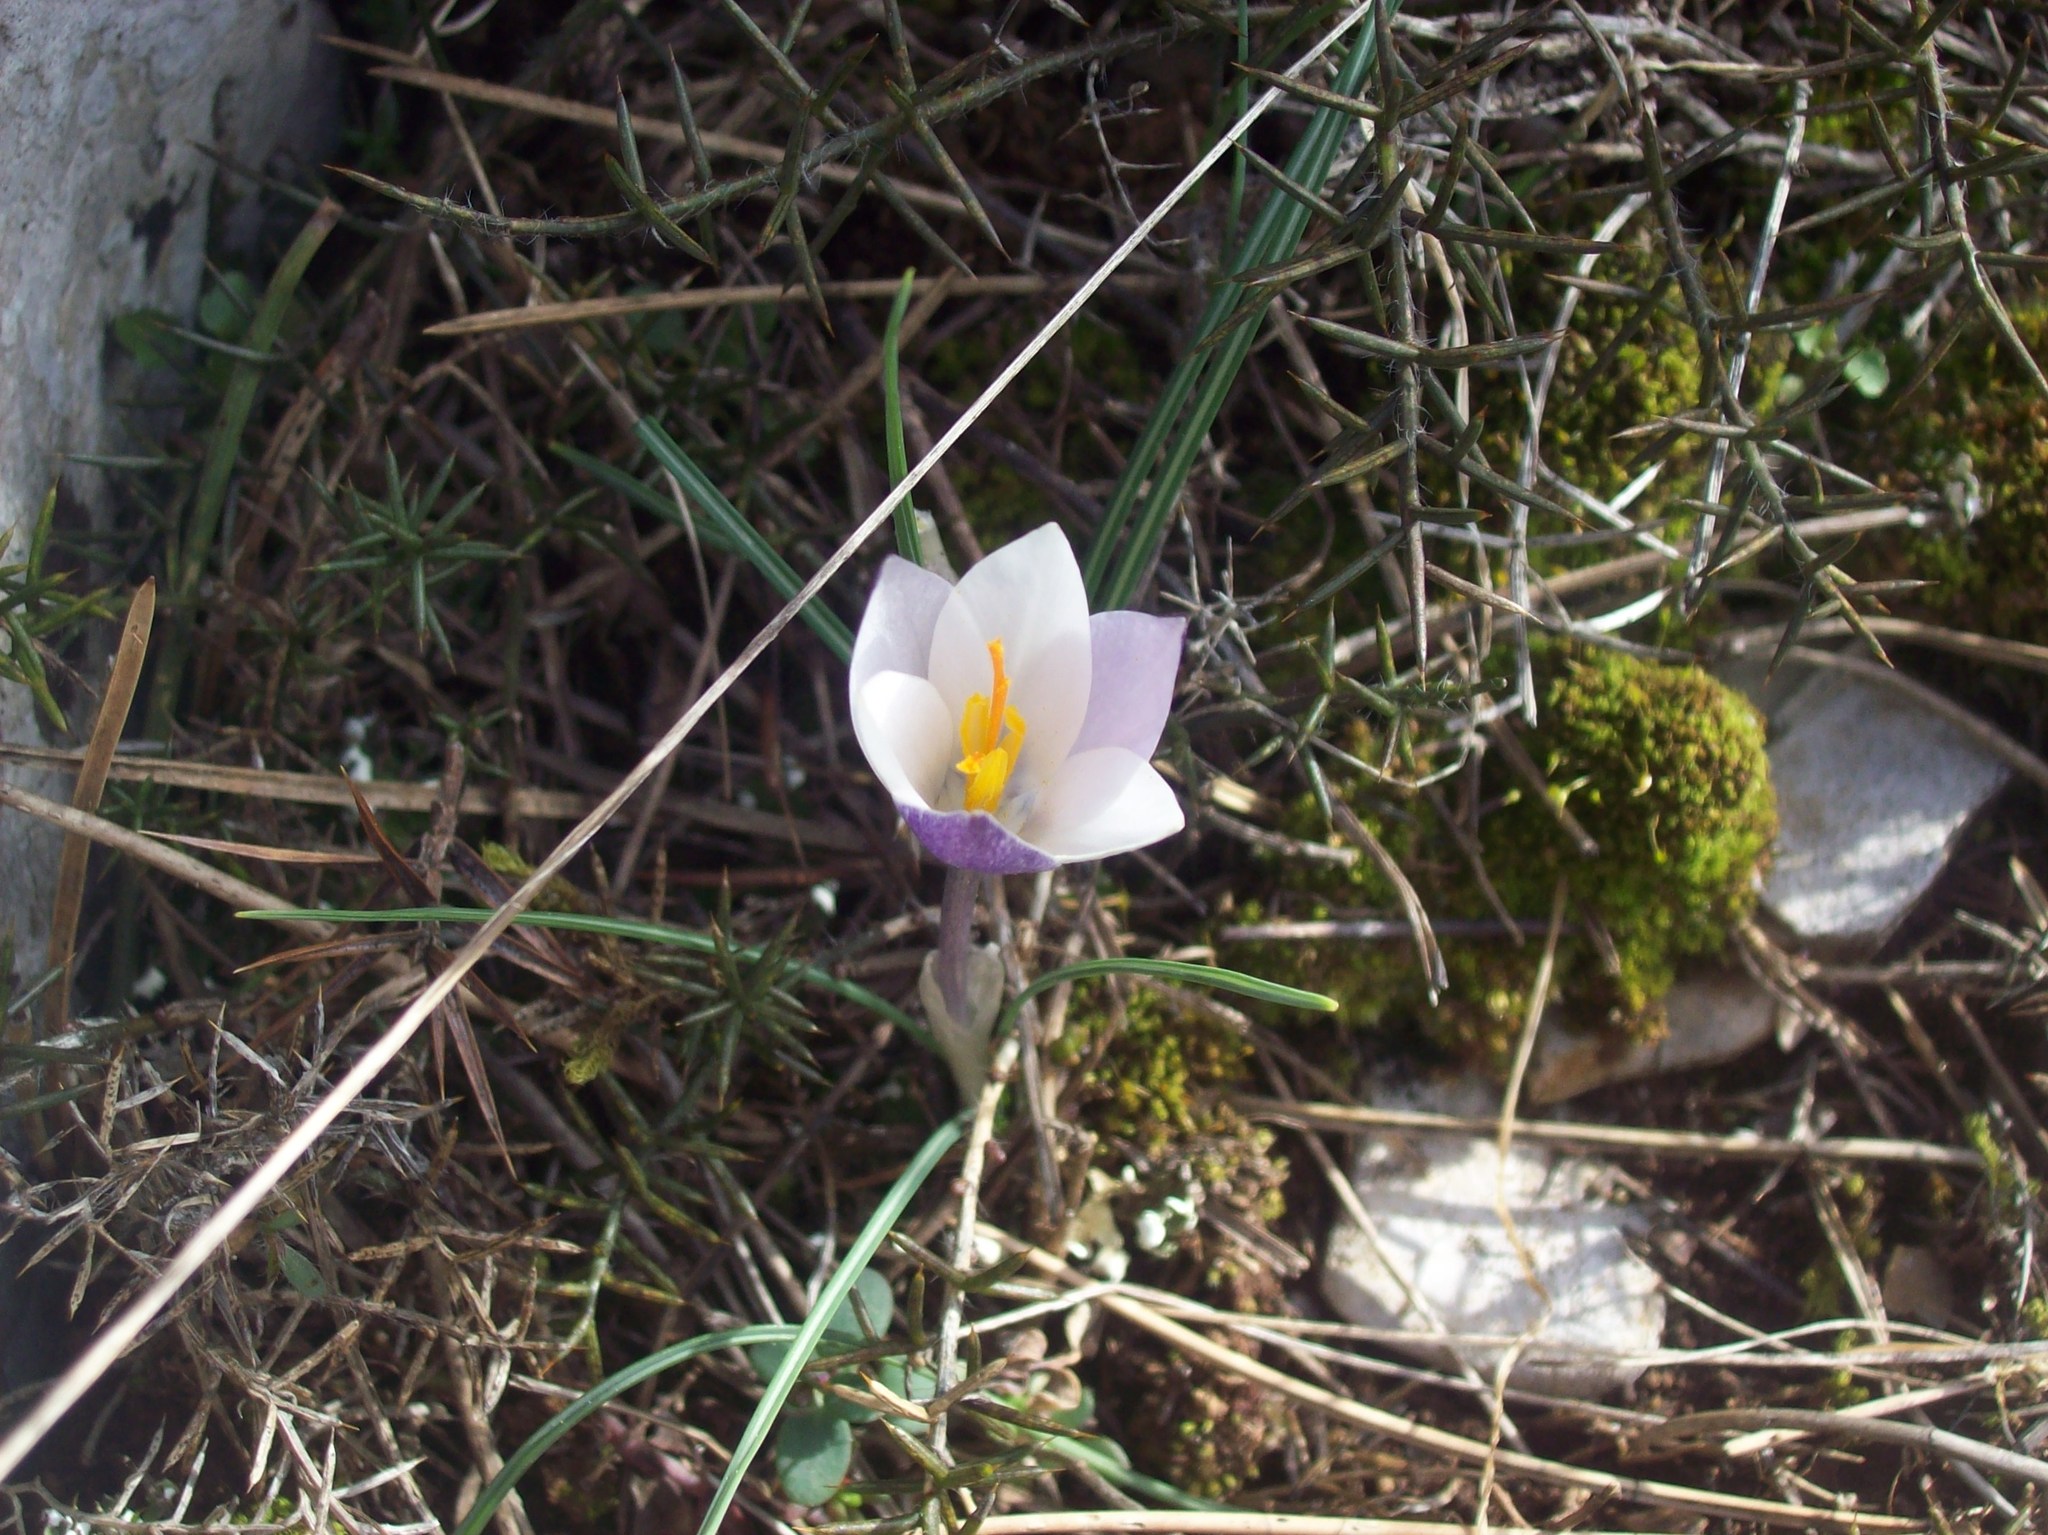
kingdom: Plantae
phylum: Tracheophyta
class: Liliopsida
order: Asparagales
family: Iridaceae
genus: Crocus
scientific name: Crocus weldenii
